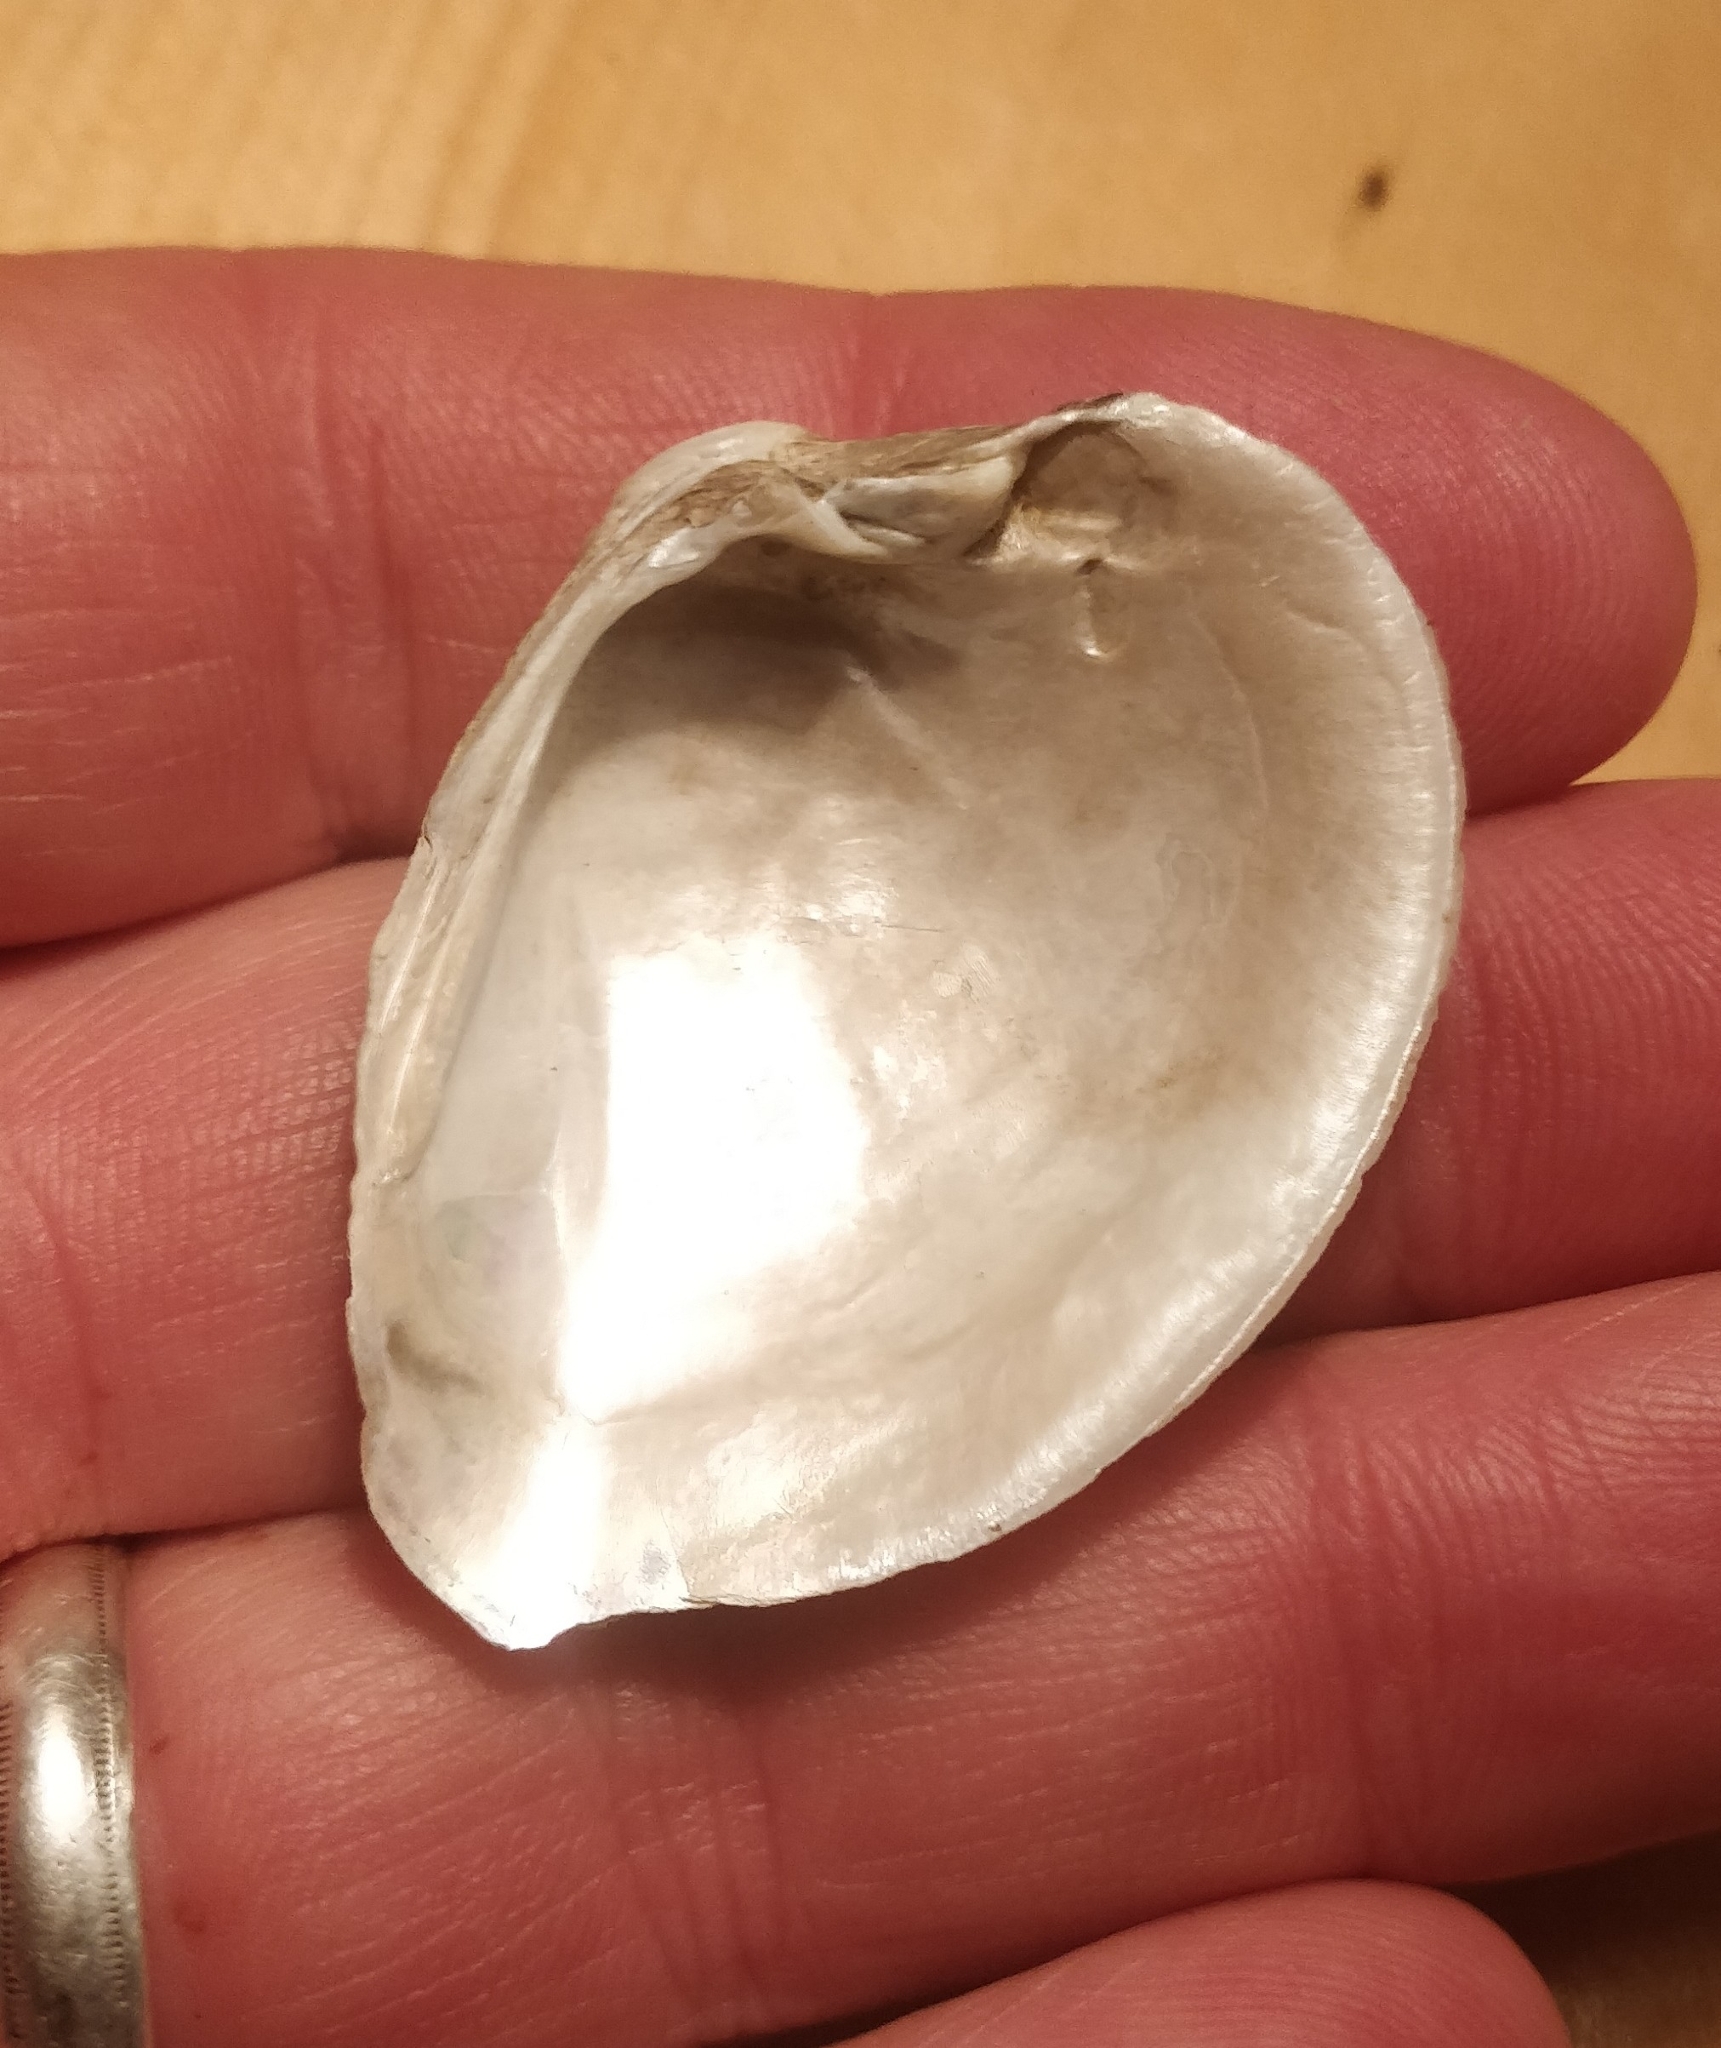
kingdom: Animalia
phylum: Mollusca
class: Bivalvia
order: Unionida
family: Unionidae
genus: Truncilla
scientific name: Truncilla truncata
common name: Deertoe
